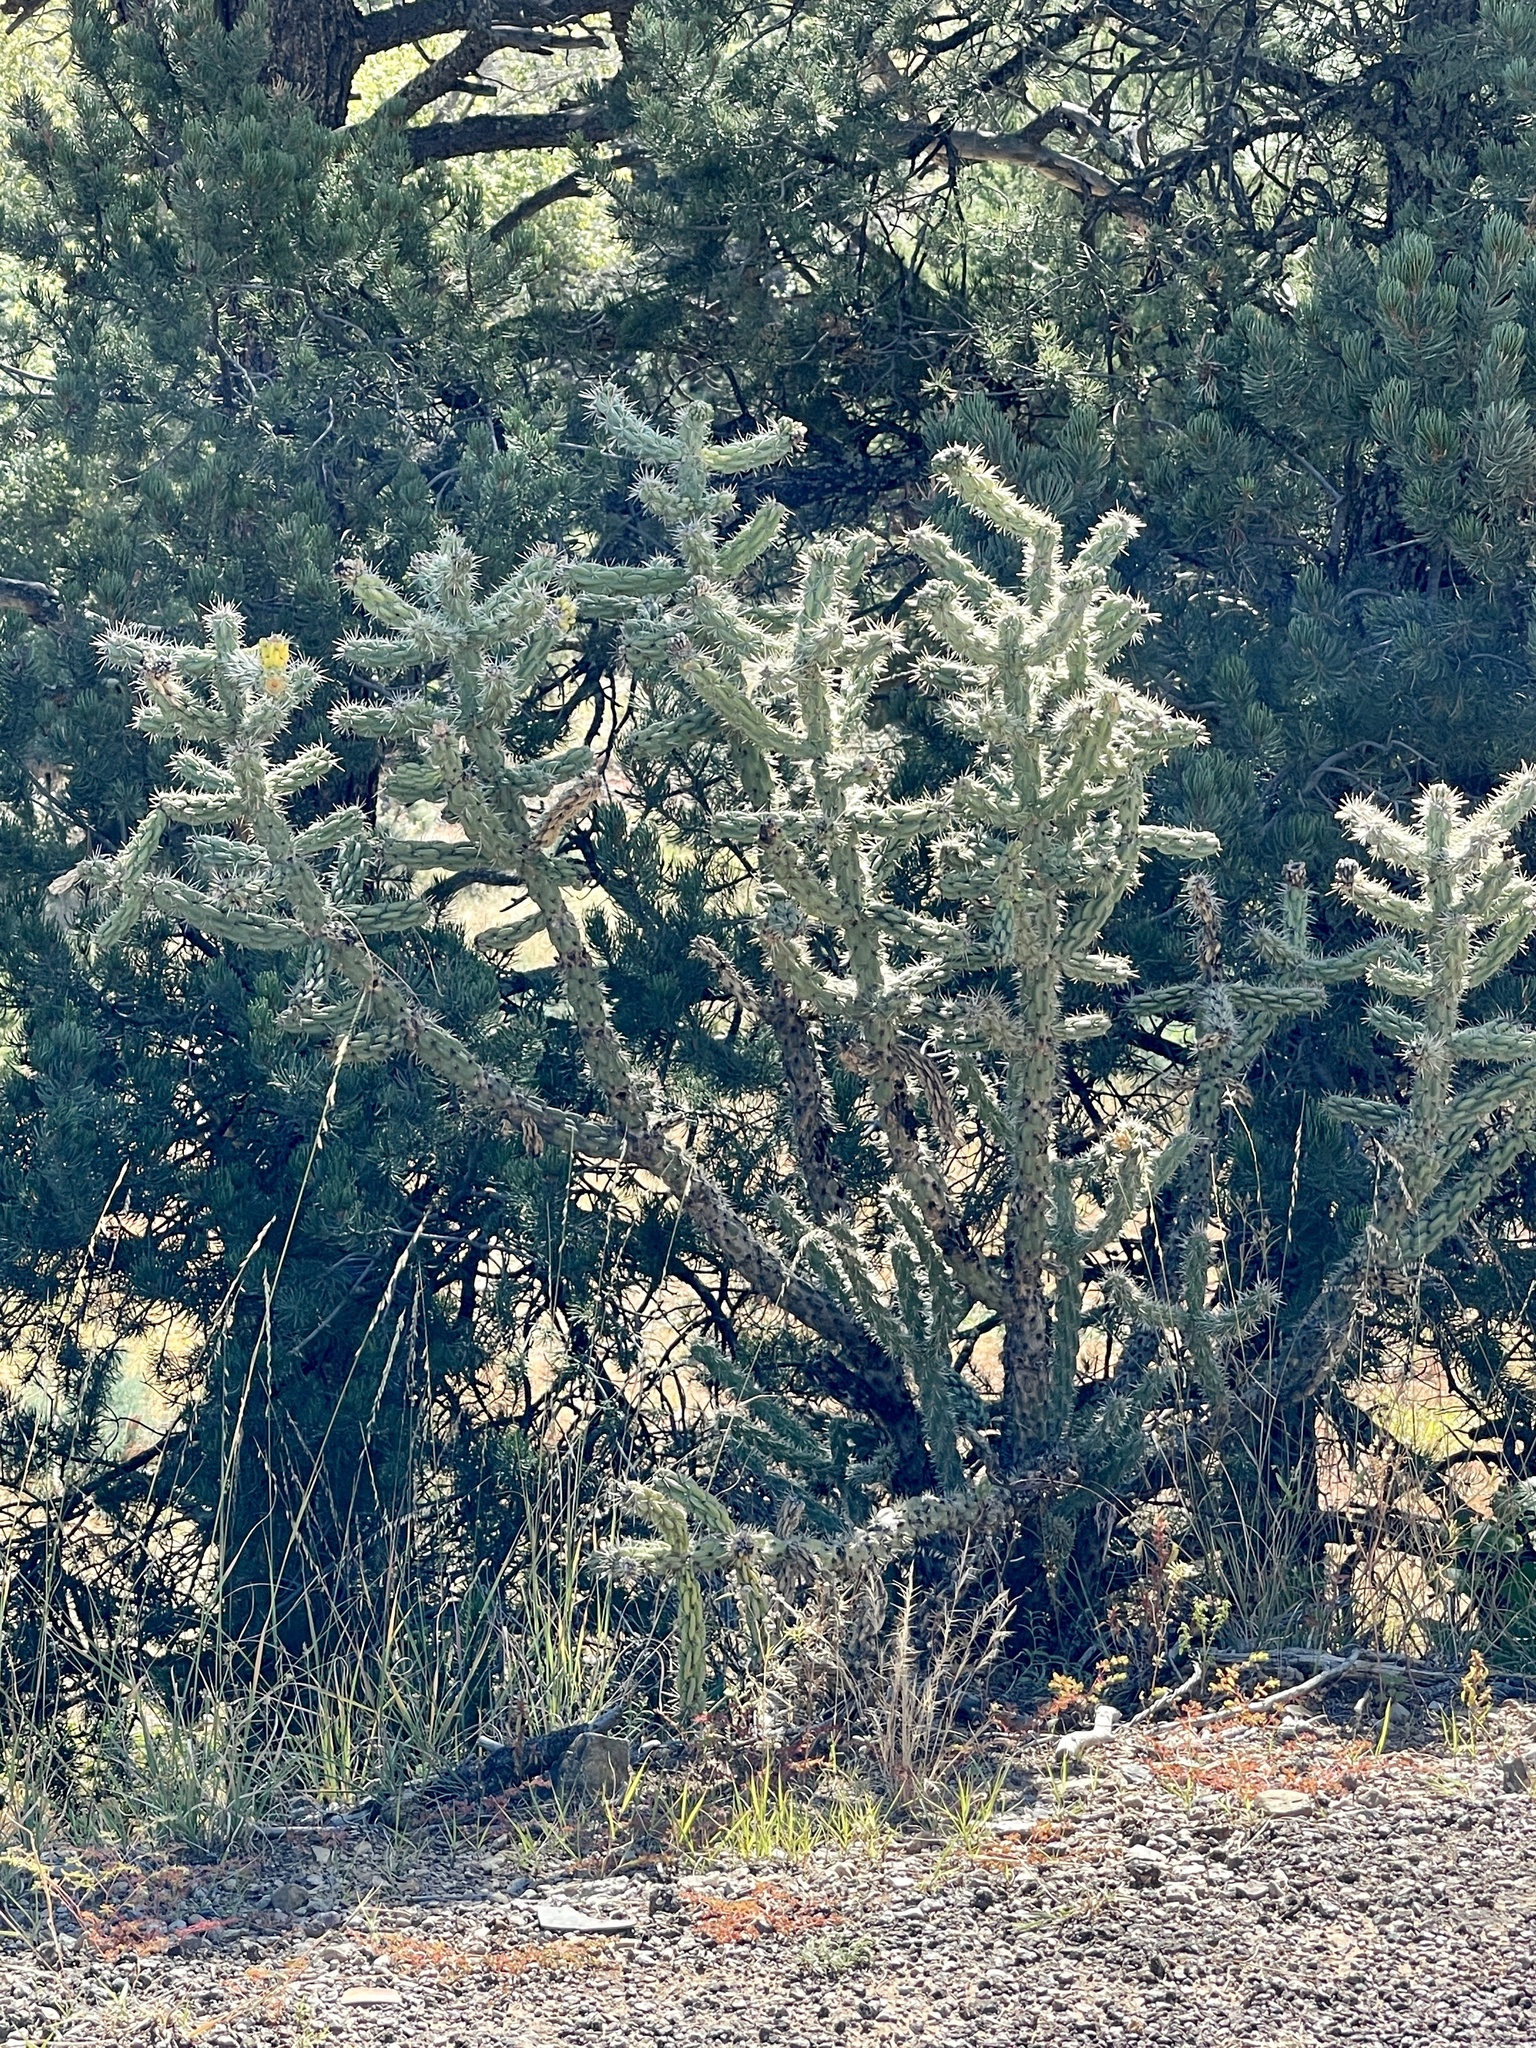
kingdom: Plantae
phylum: Tracheophyta
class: Magnoliopsida
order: Caryophyllales
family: Cactaceae
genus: Cylindropuntia
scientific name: Cylindropuntia imbricata
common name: Candelabrum cactus
